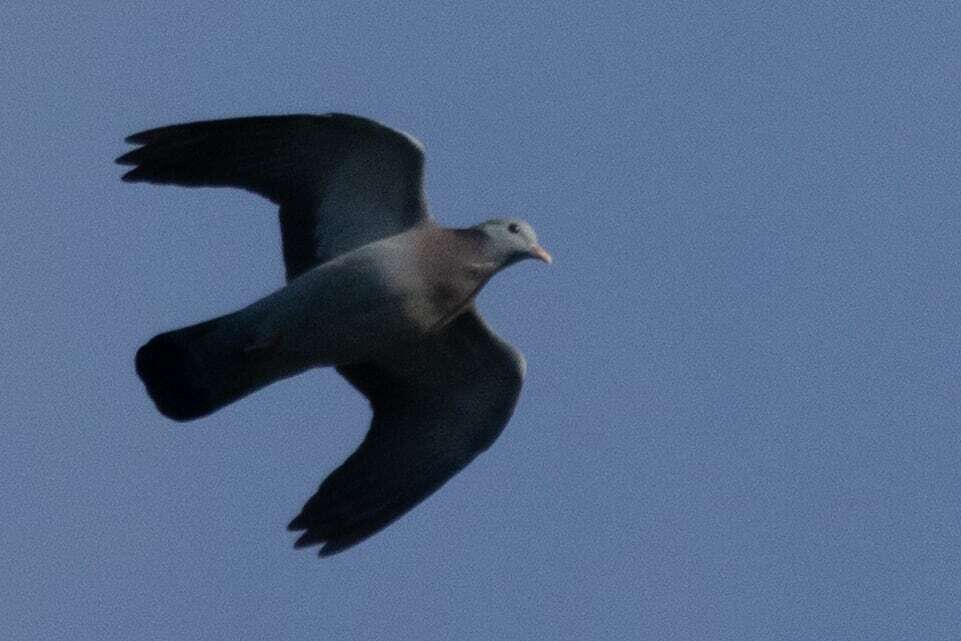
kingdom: Animalia
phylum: Chordata
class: Aves
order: Columbiformes
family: Columbidae
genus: Columba
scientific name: Columba oenas
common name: Stock dove
